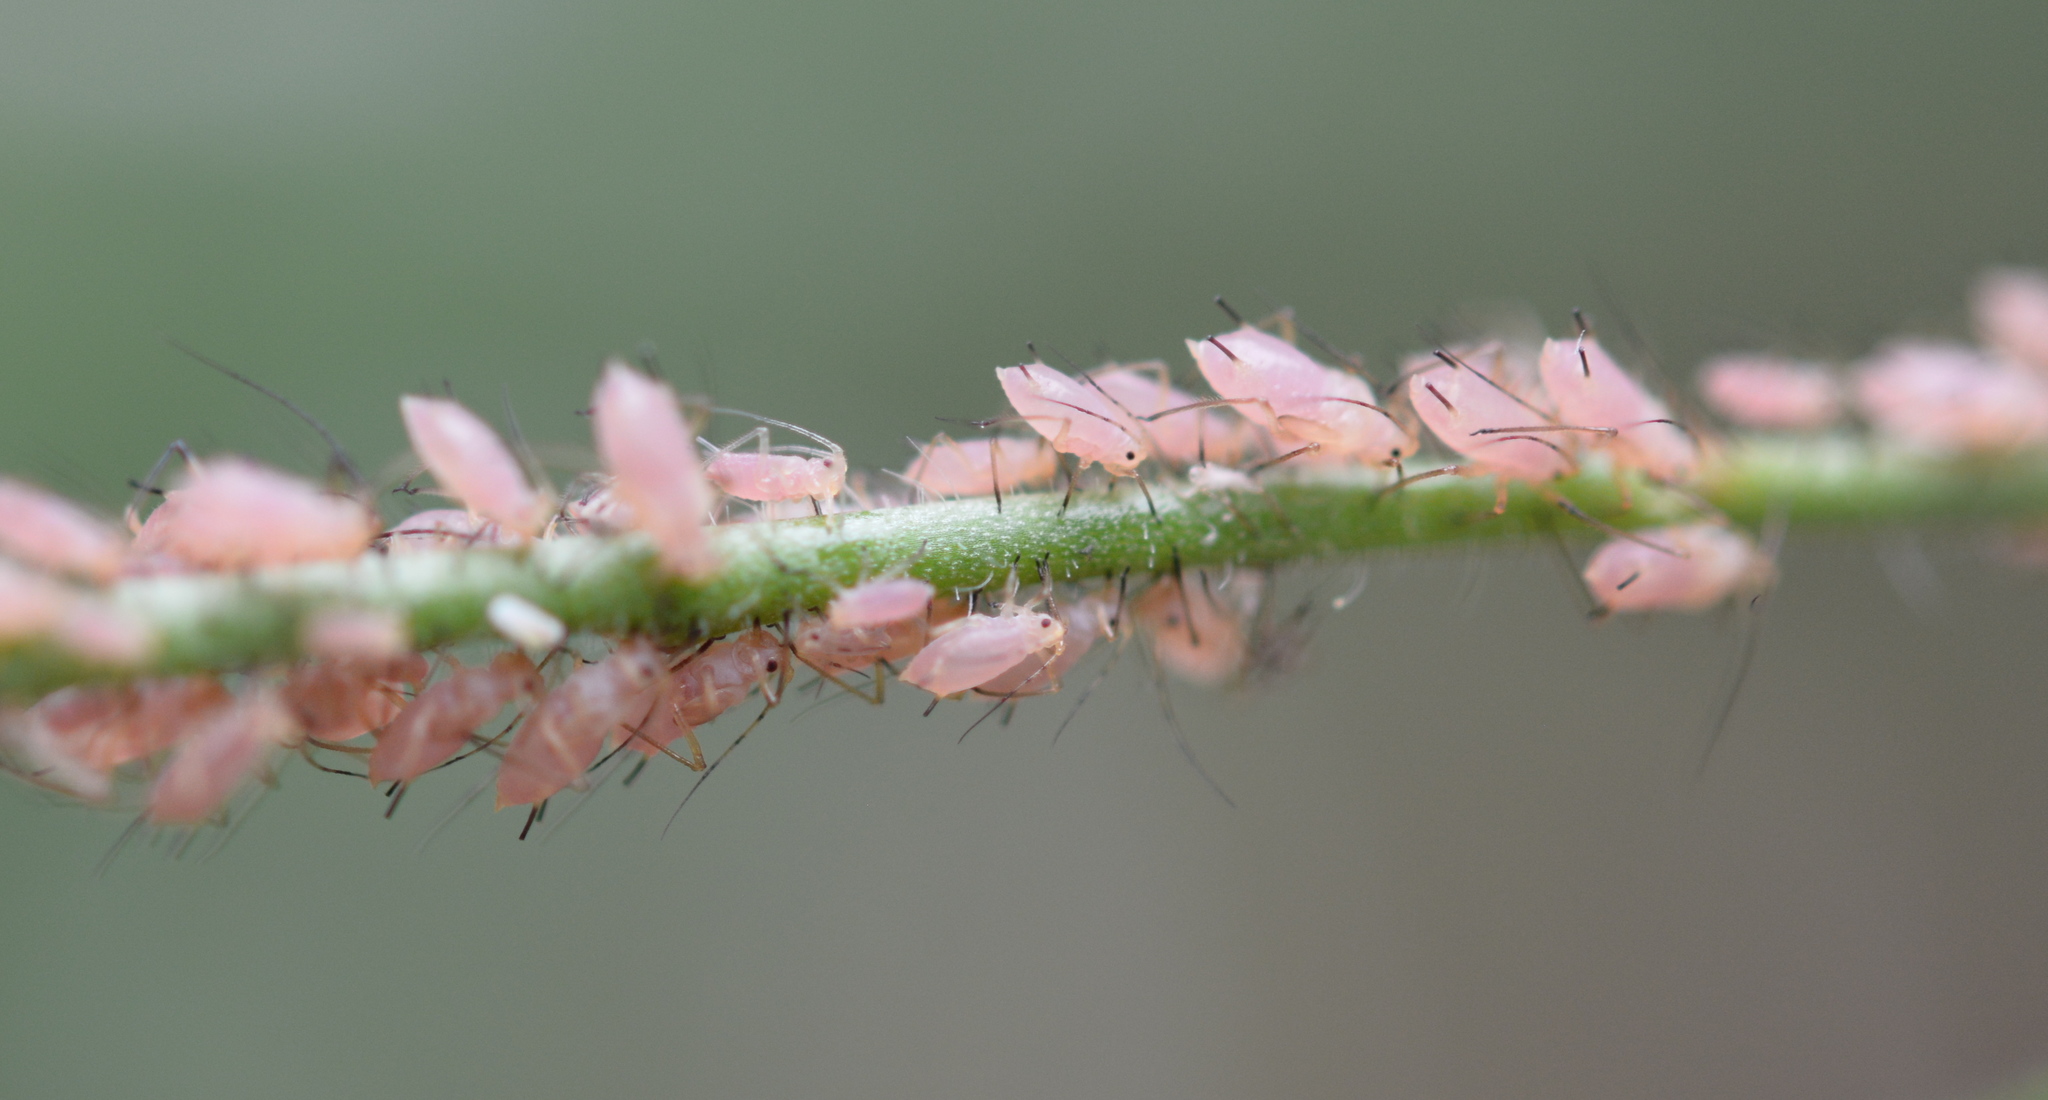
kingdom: Animalia
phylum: Arthropoda
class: Insecta
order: Hemiptera
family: Aphididae
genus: Macrosiphum
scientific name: Macrosiphum gaurae
